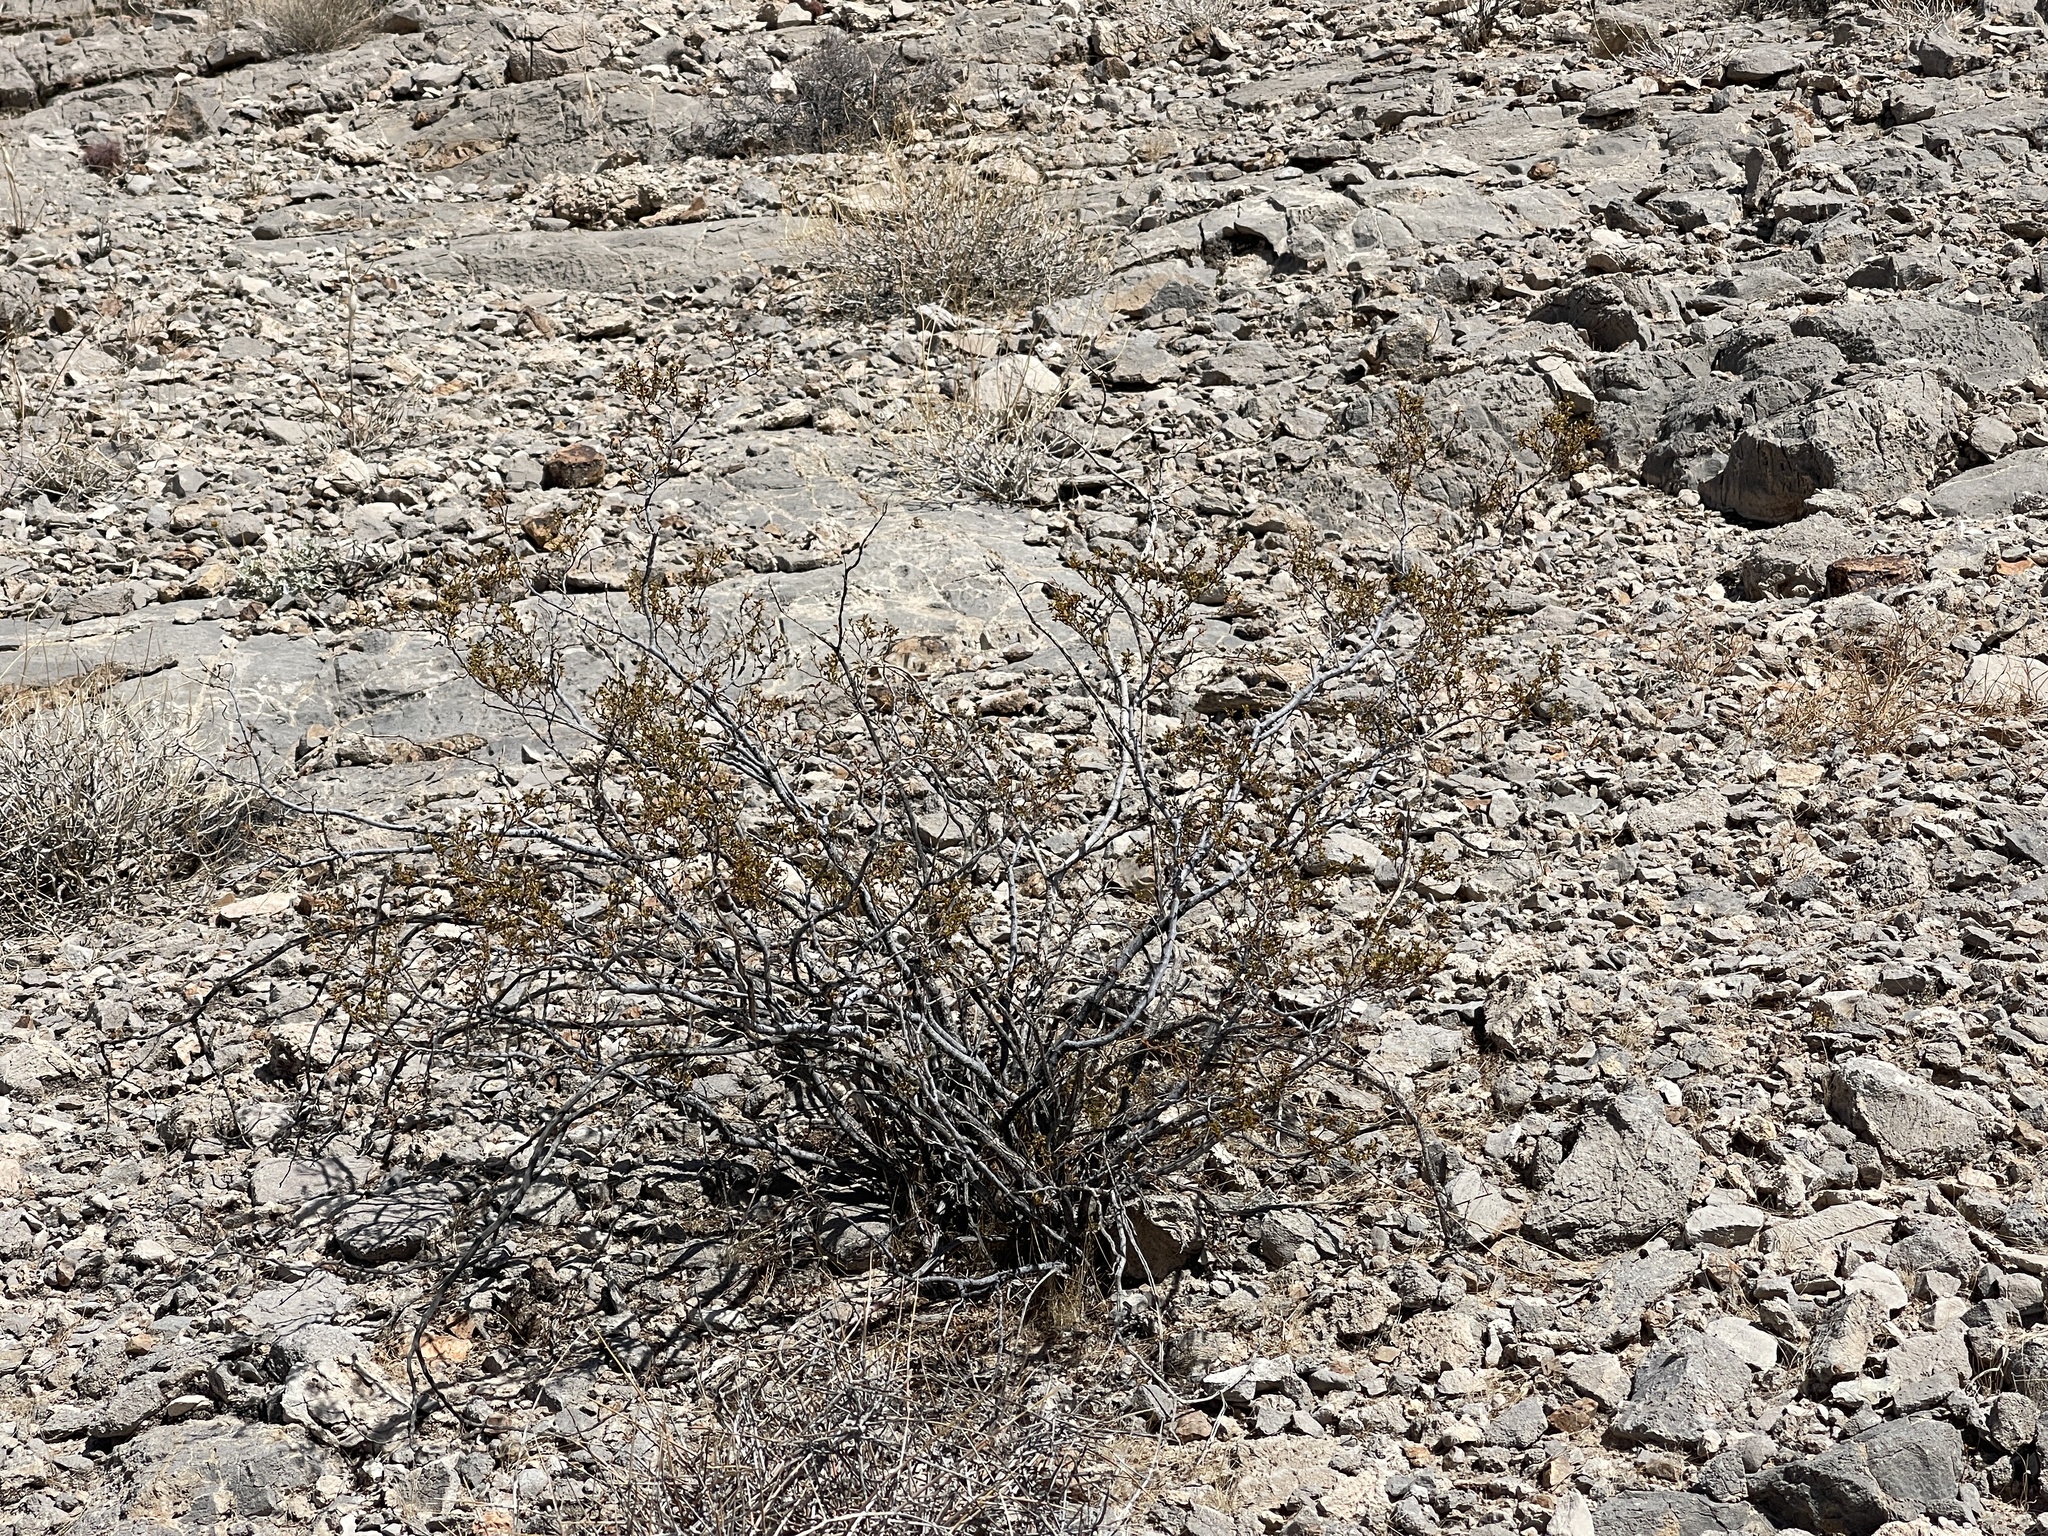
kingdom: Plantae
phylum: Tracheophyta
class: Magnoliopsida
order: Zygophyllales
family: Zygophyllaceae
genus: Larrea
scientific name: Larrea tridentata
